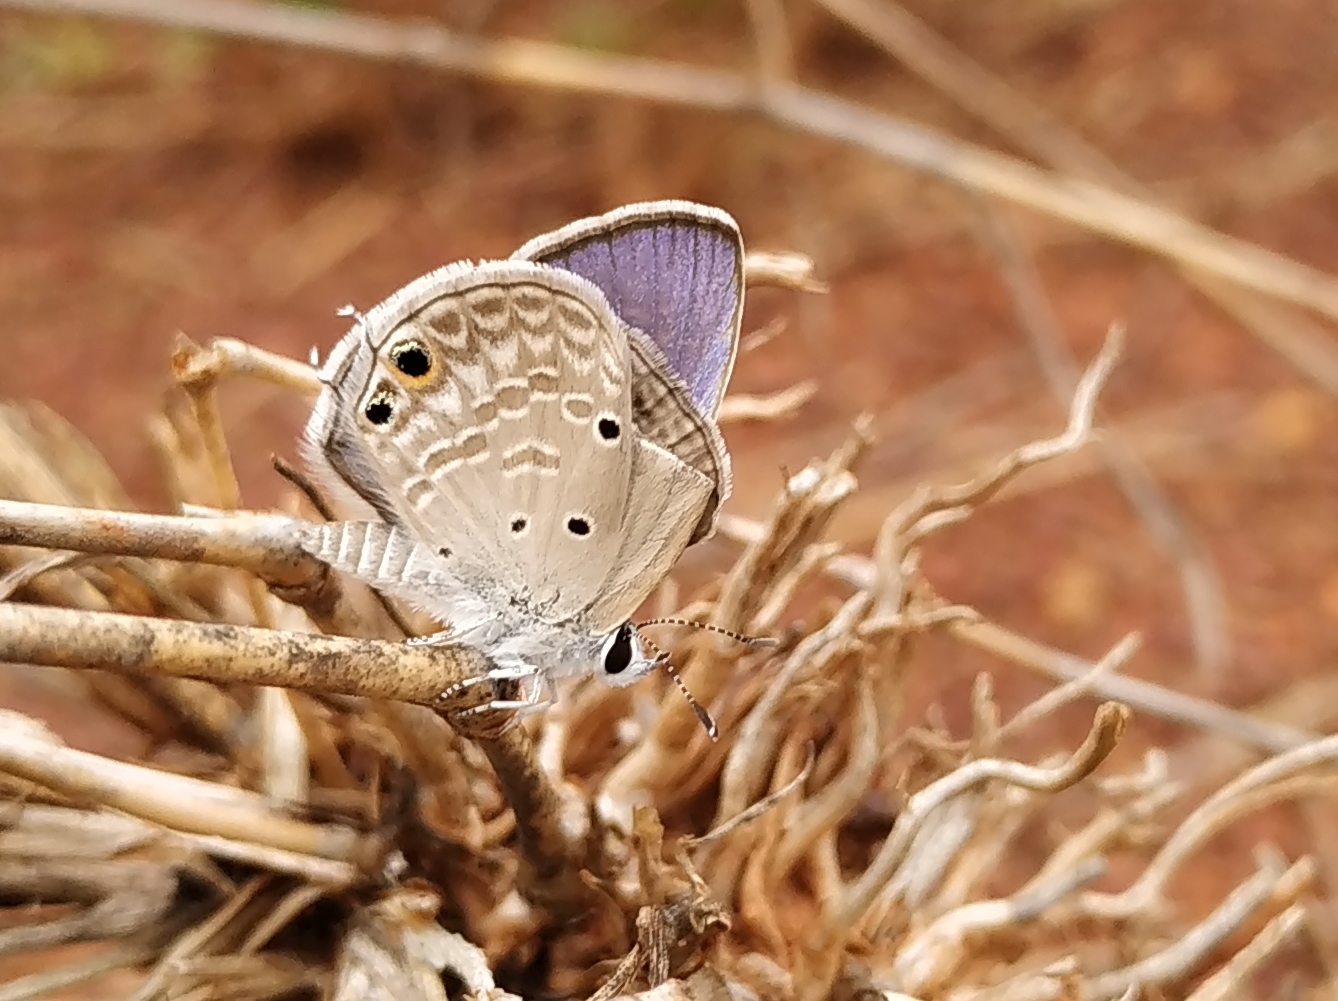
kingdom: Animalia
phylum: Arthropoda
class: Insecta
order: Lepidoptera
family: Lycaenidae
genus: Chilades
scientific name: Chilades parrhasius
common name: Small cupid
